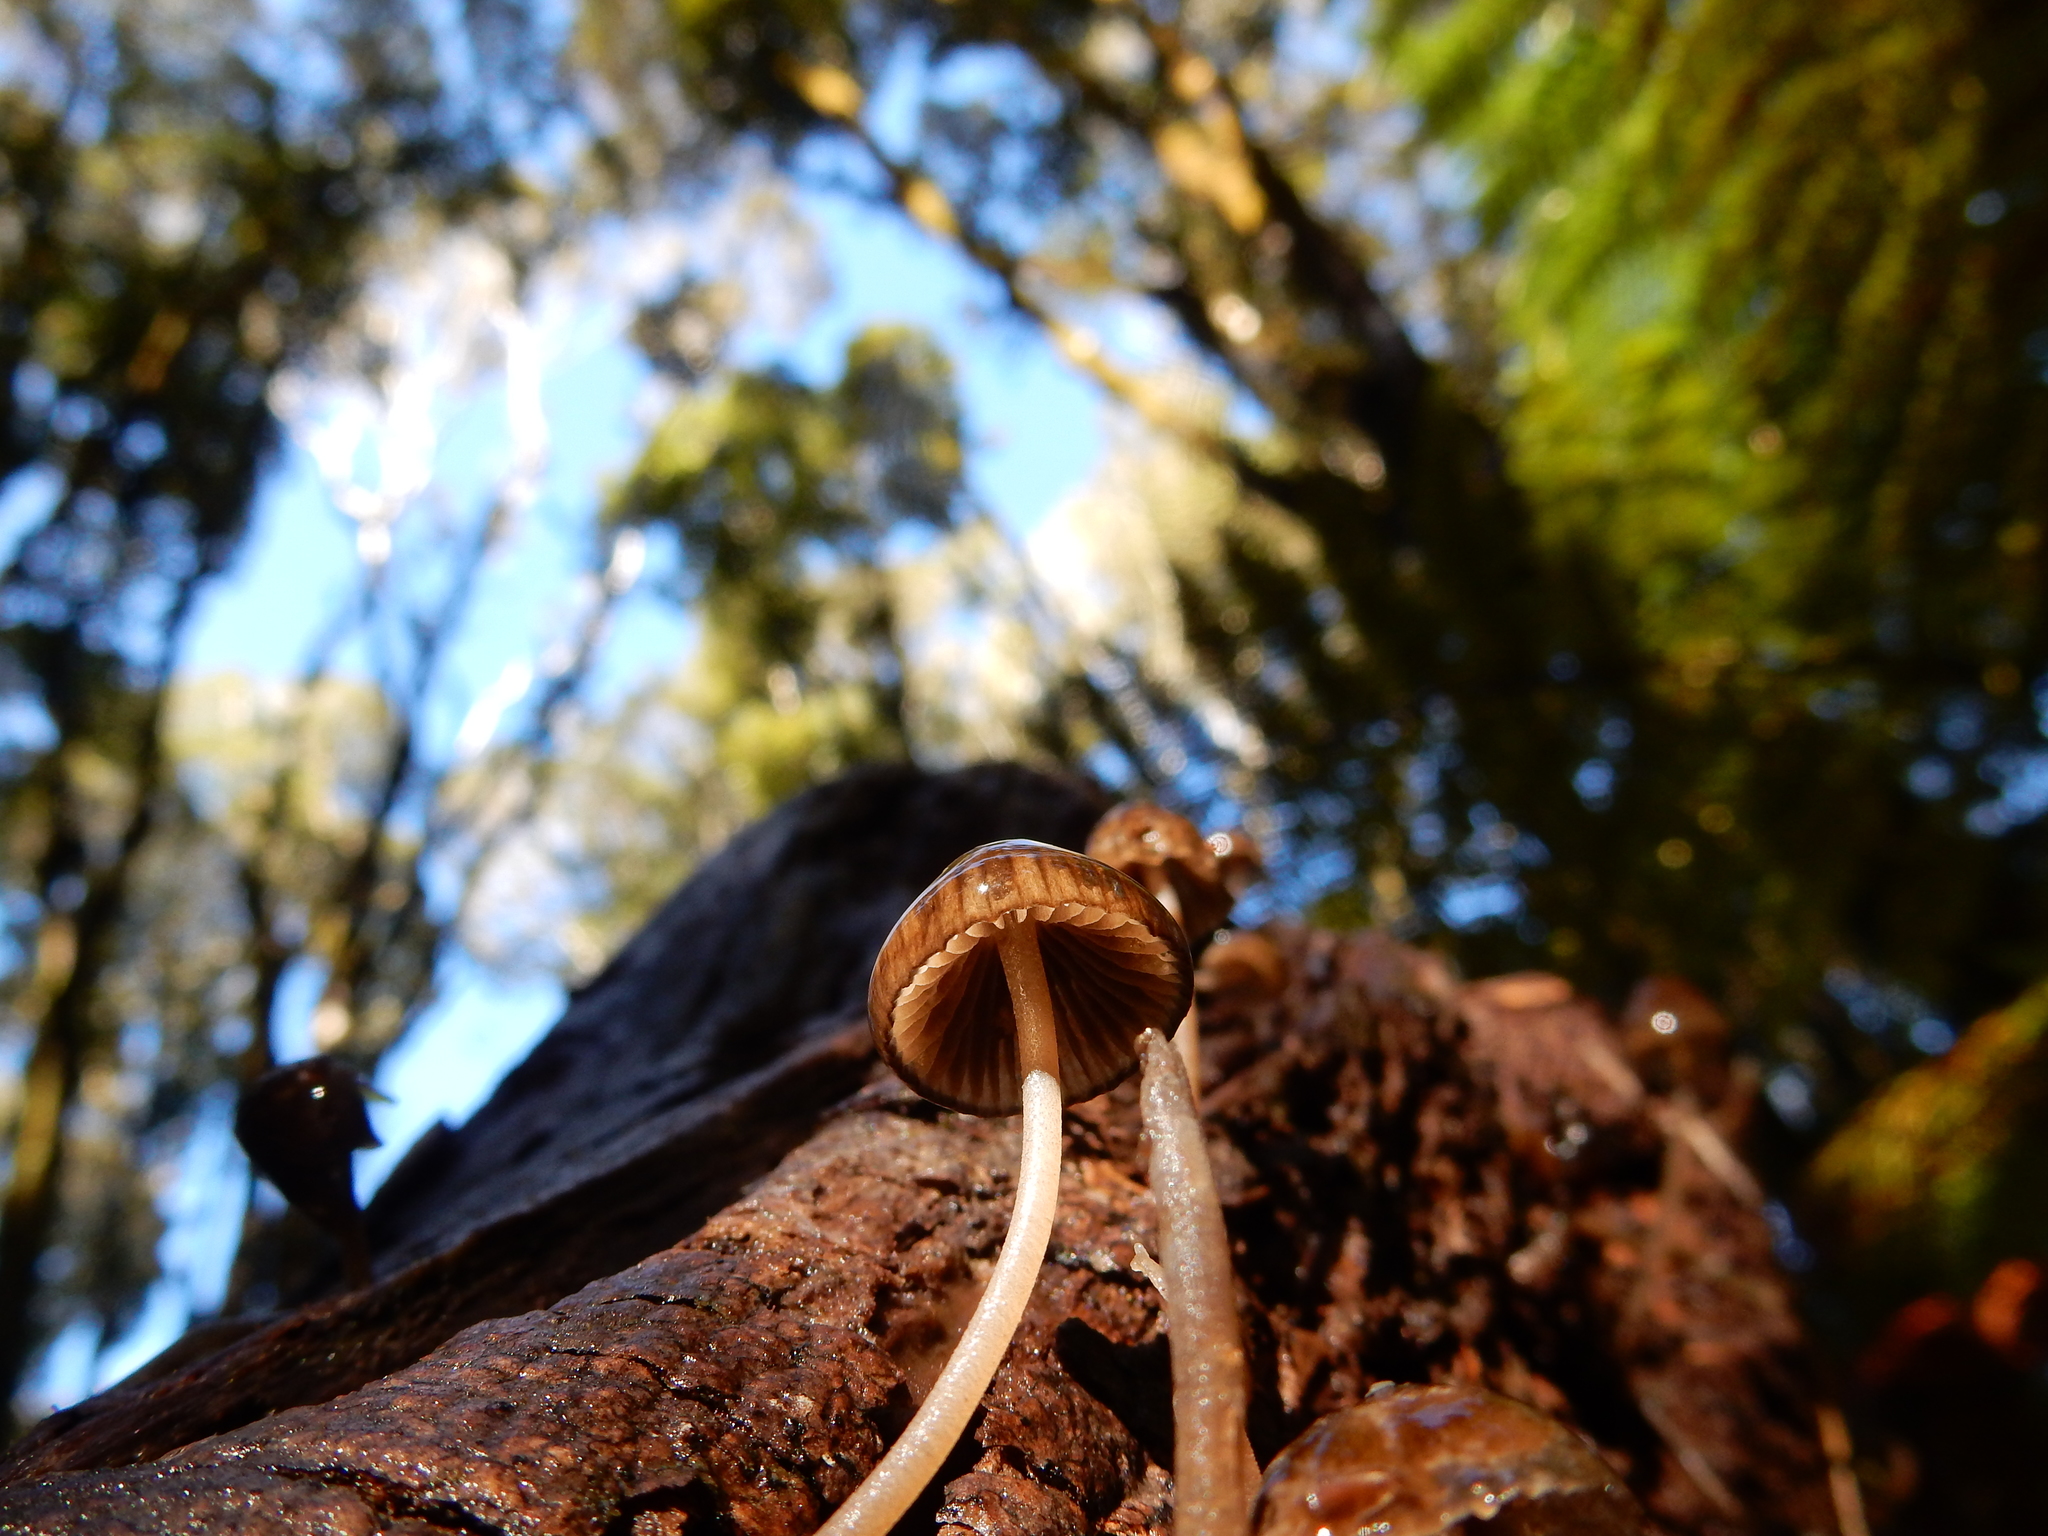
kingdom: Fungi
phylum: Basidiomycota
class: Agaricomycetes
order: Agaricales
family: Porotheleaceae
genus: Pseudohydropus
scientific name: Pseudohydropus parafunebris
